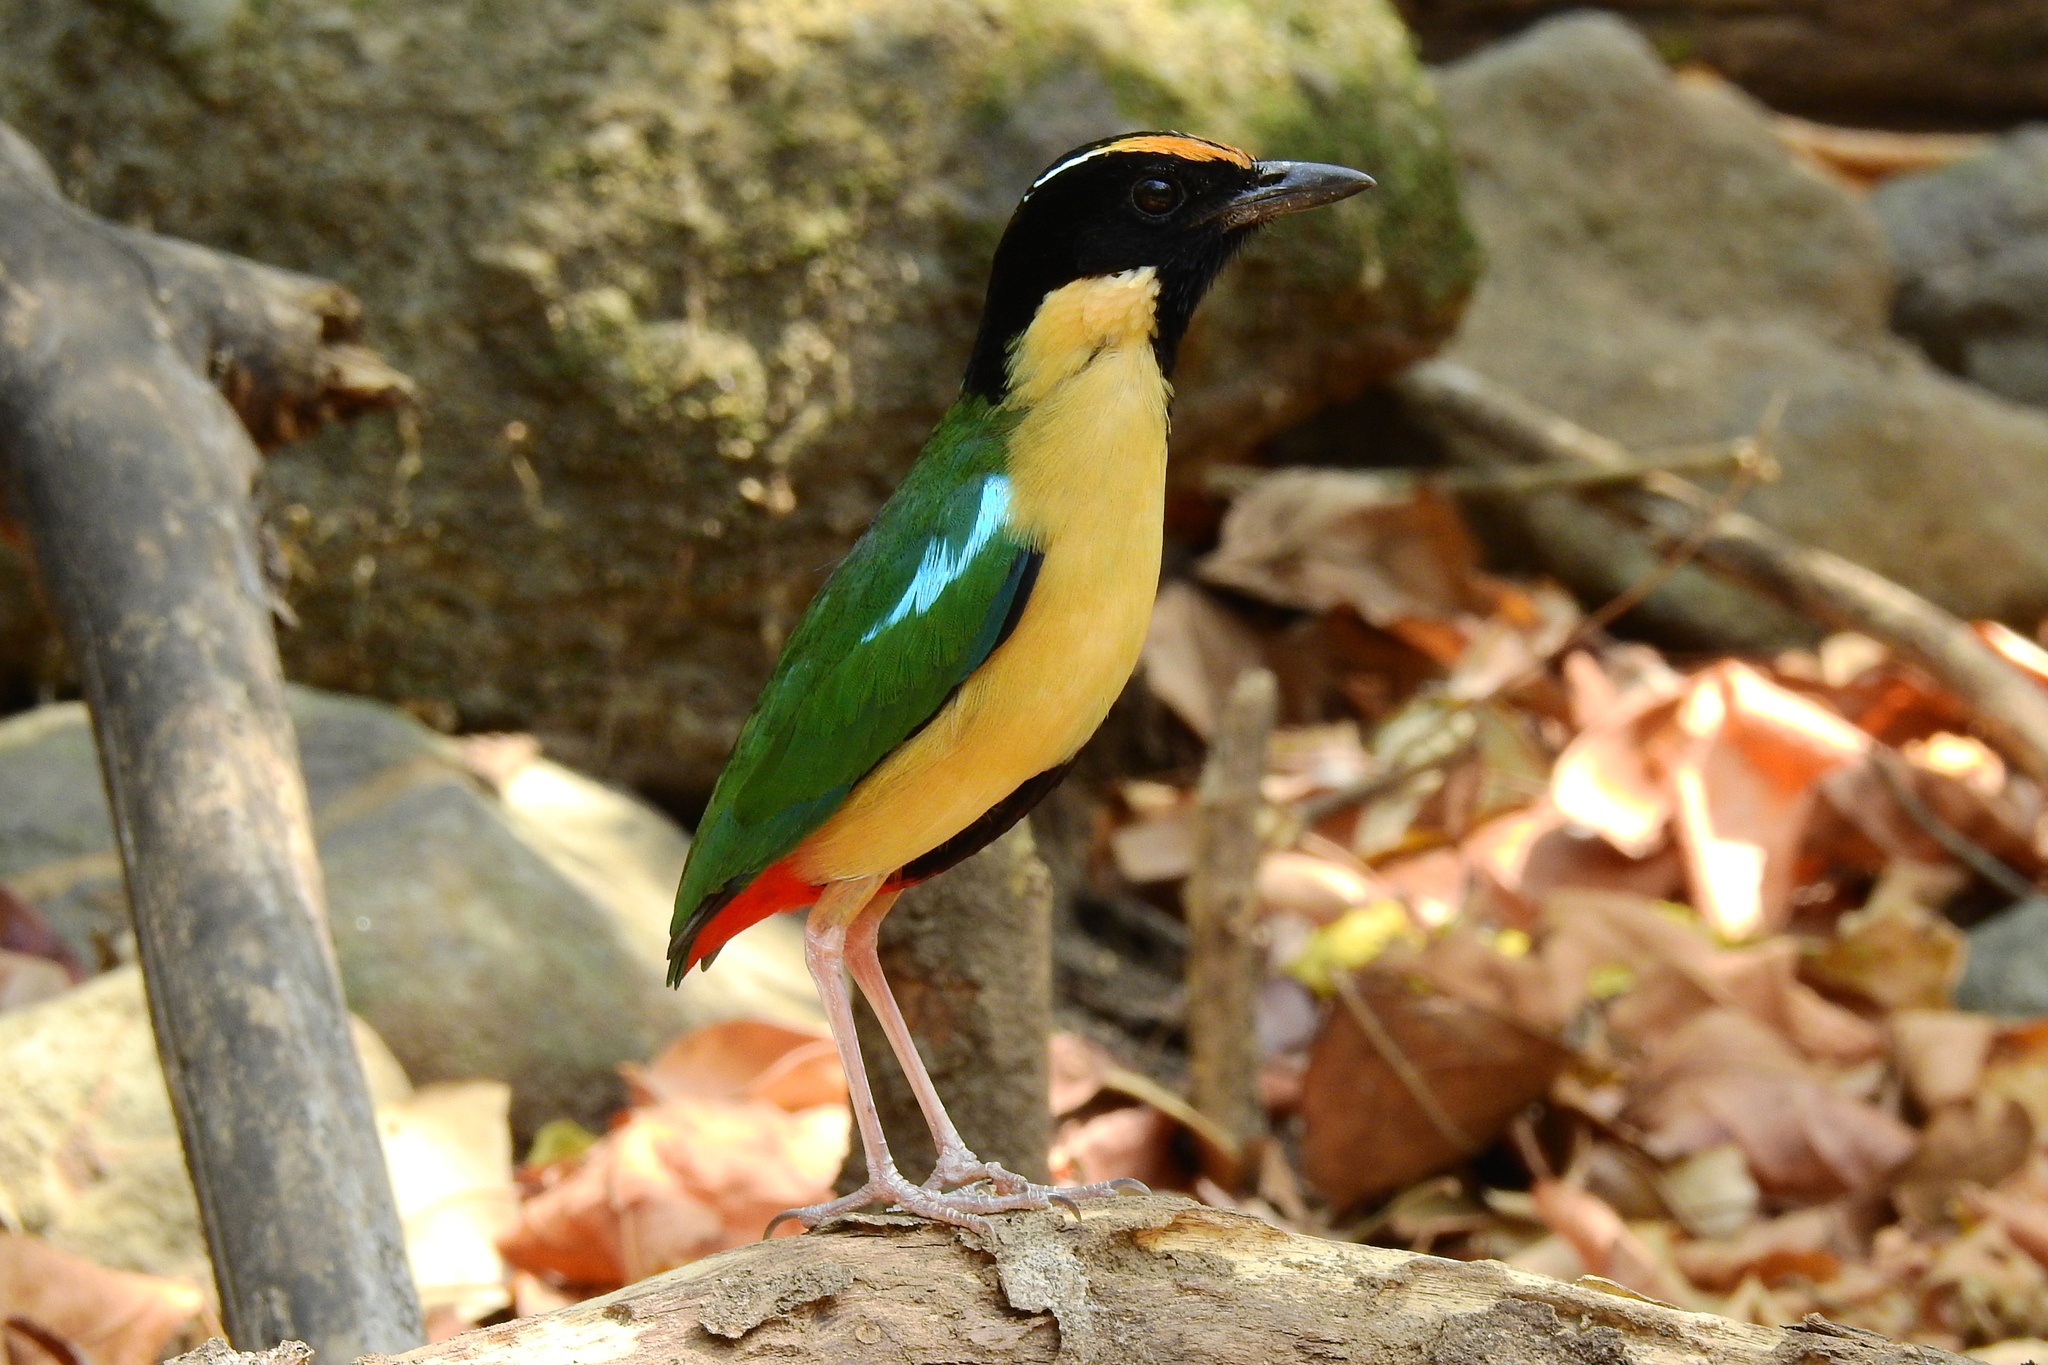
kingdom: Animalia
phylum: Chordata
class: Aves
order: Passeriformes
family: Pittidae
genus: Pitta
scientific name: Pitta concinna
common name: Ornate pitta
